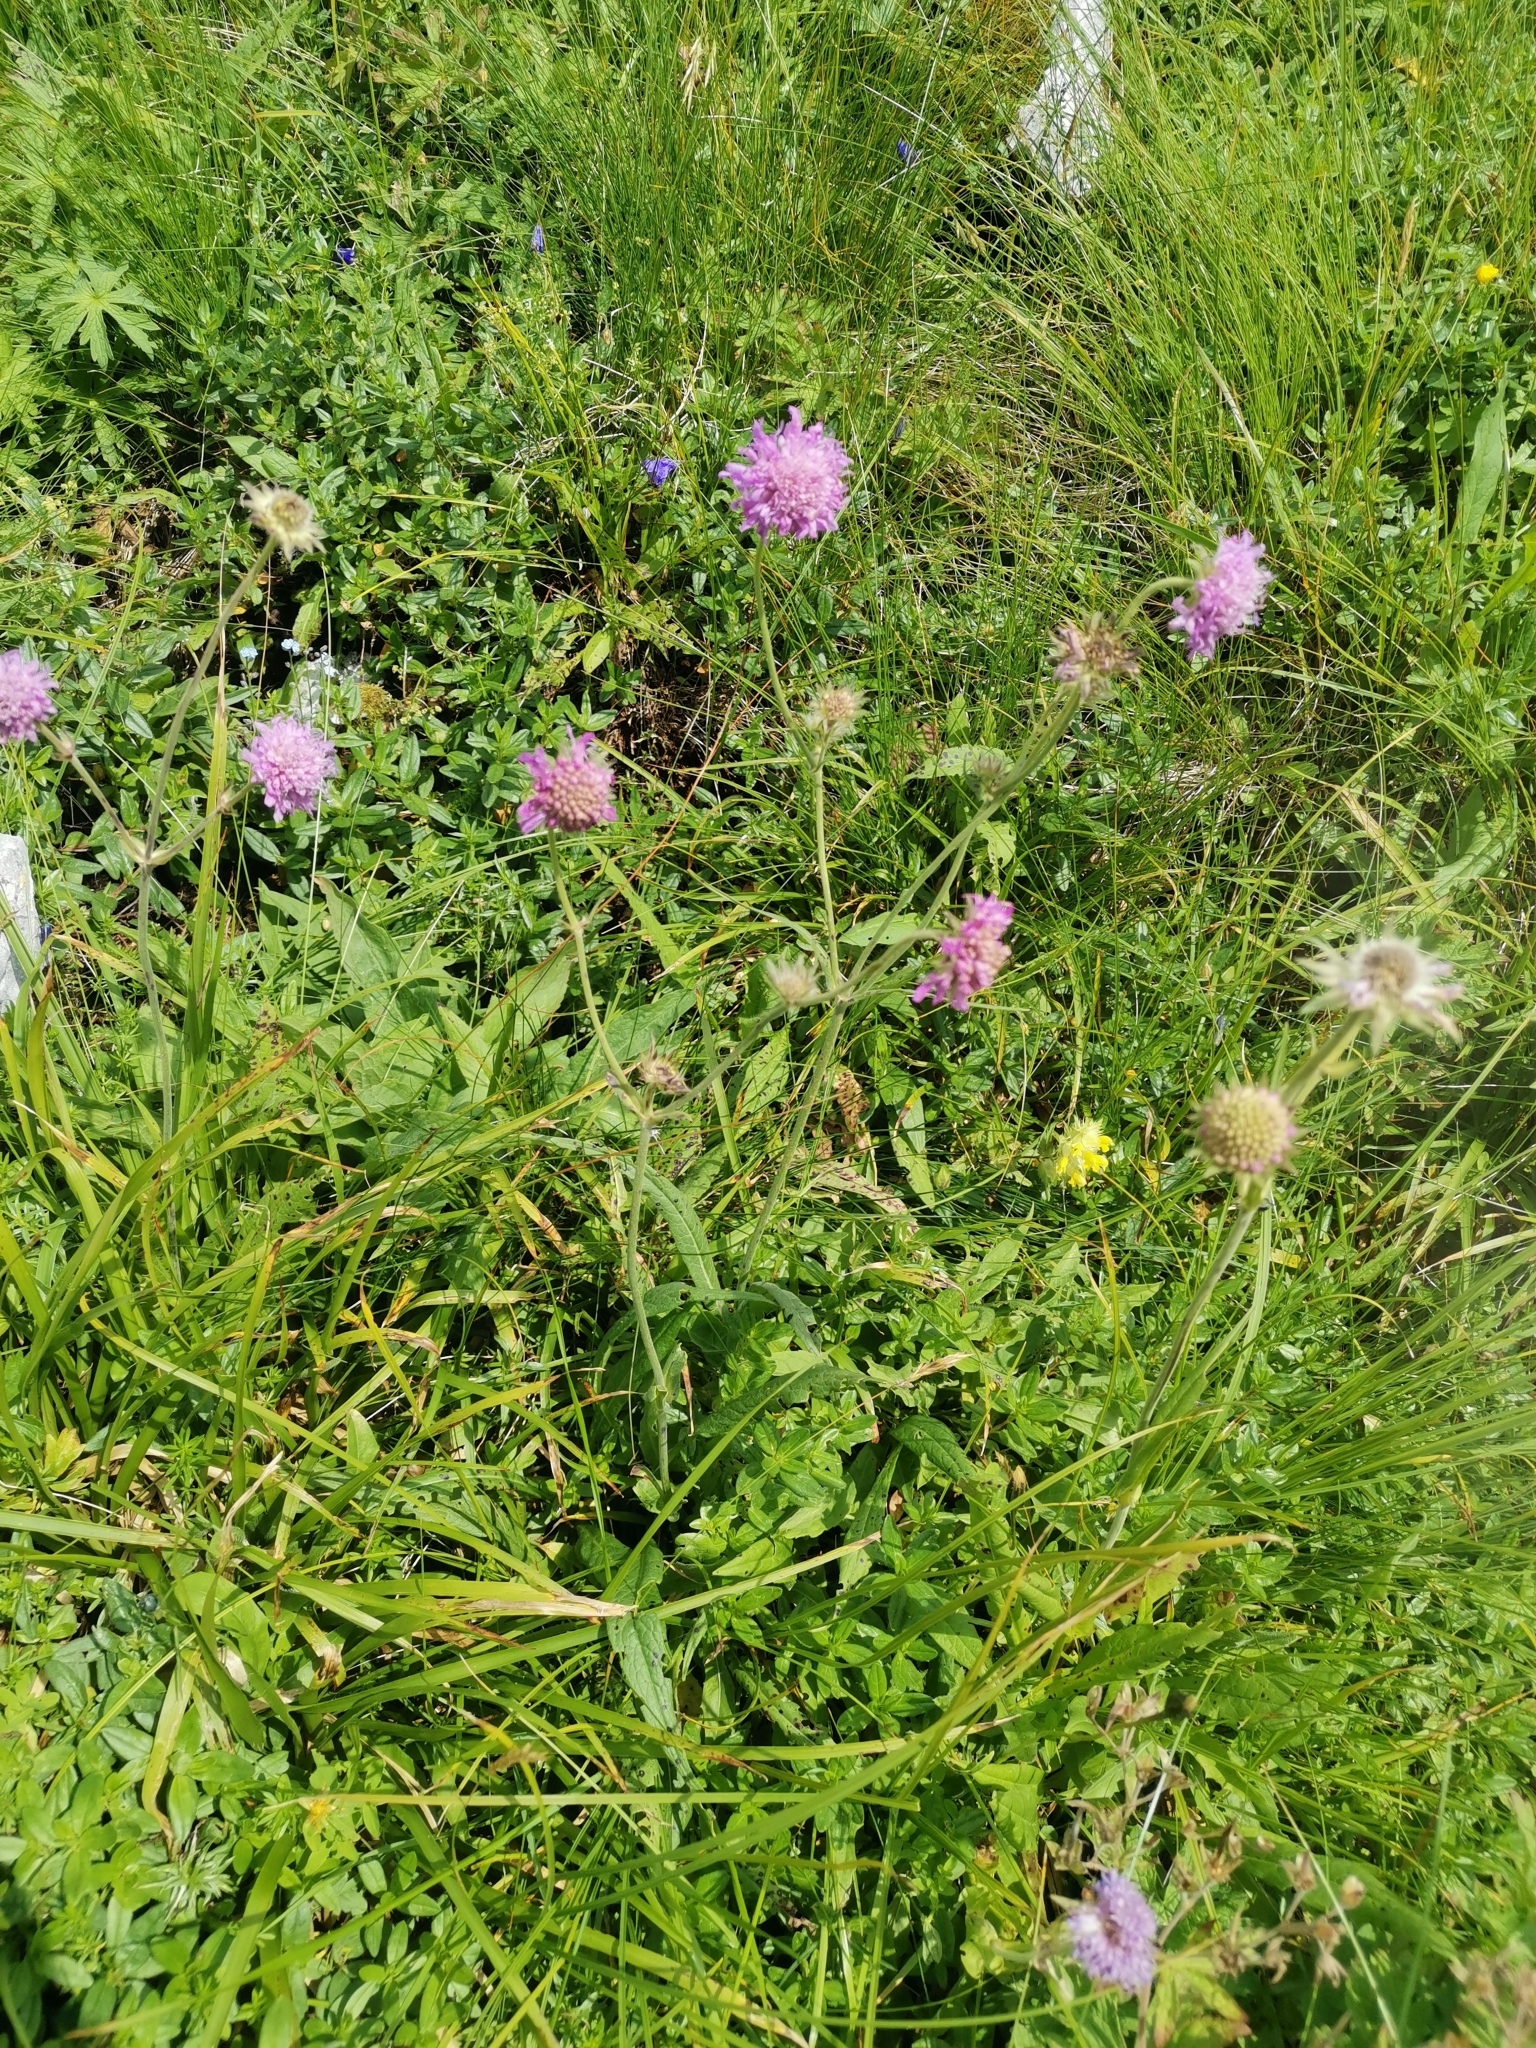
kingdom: Plantae
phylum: Tracheophyta
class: Magnoliopsida
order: Dipsacales
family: Caprifoliaceae
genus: Knautia
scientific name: Knautia longifolia
